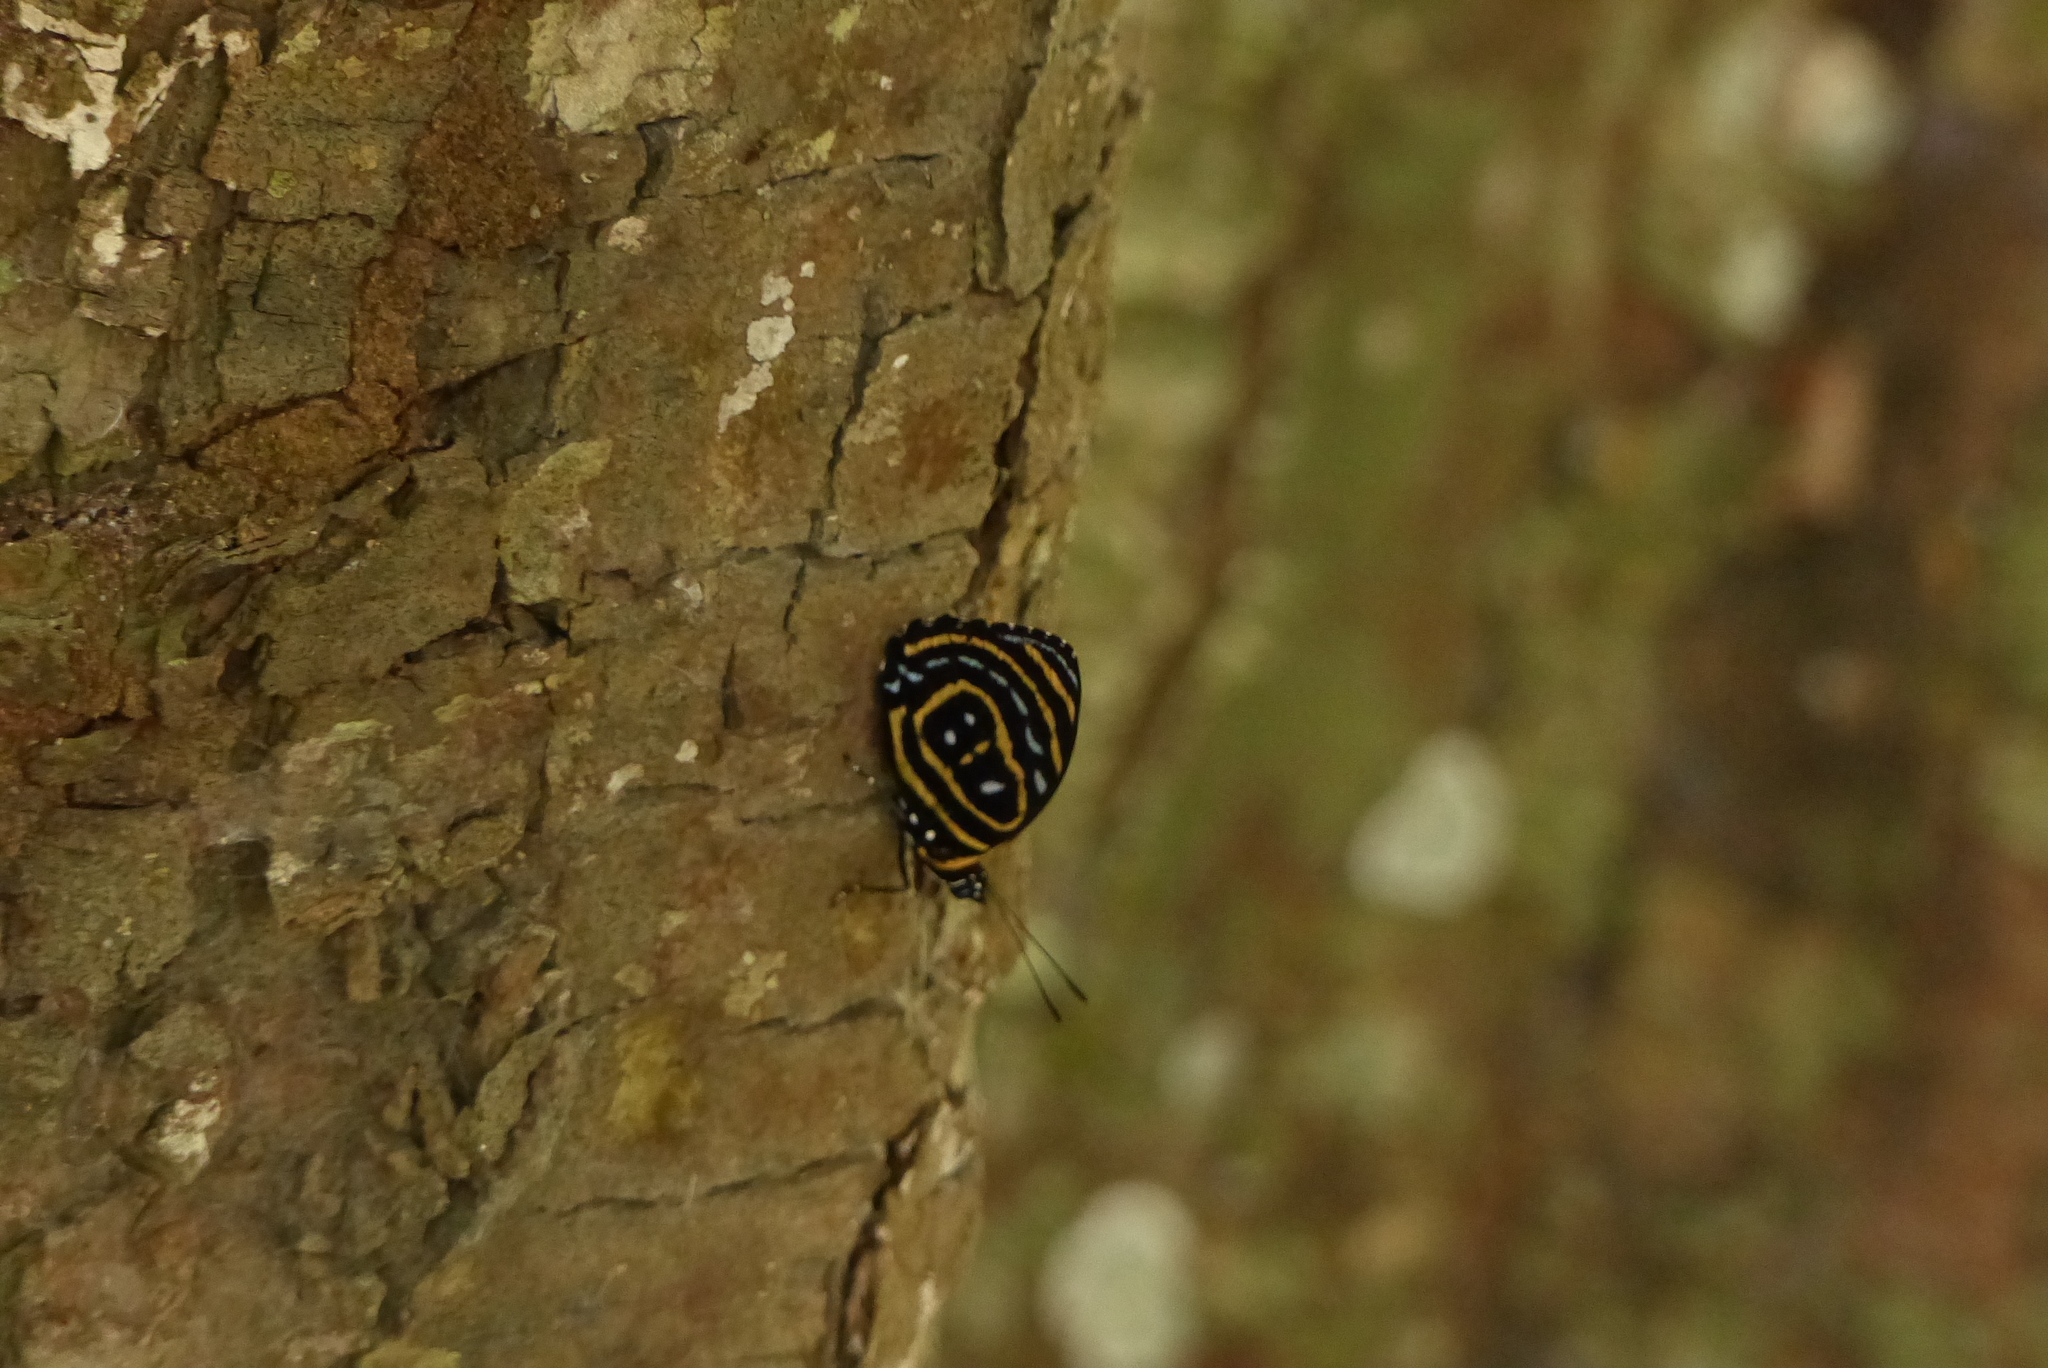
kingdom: Animalia
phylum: Arthropoda
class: Insecta
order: Lepidoptera
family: Nymphalidae
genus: Catagramma
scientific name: Catagramma astarte
